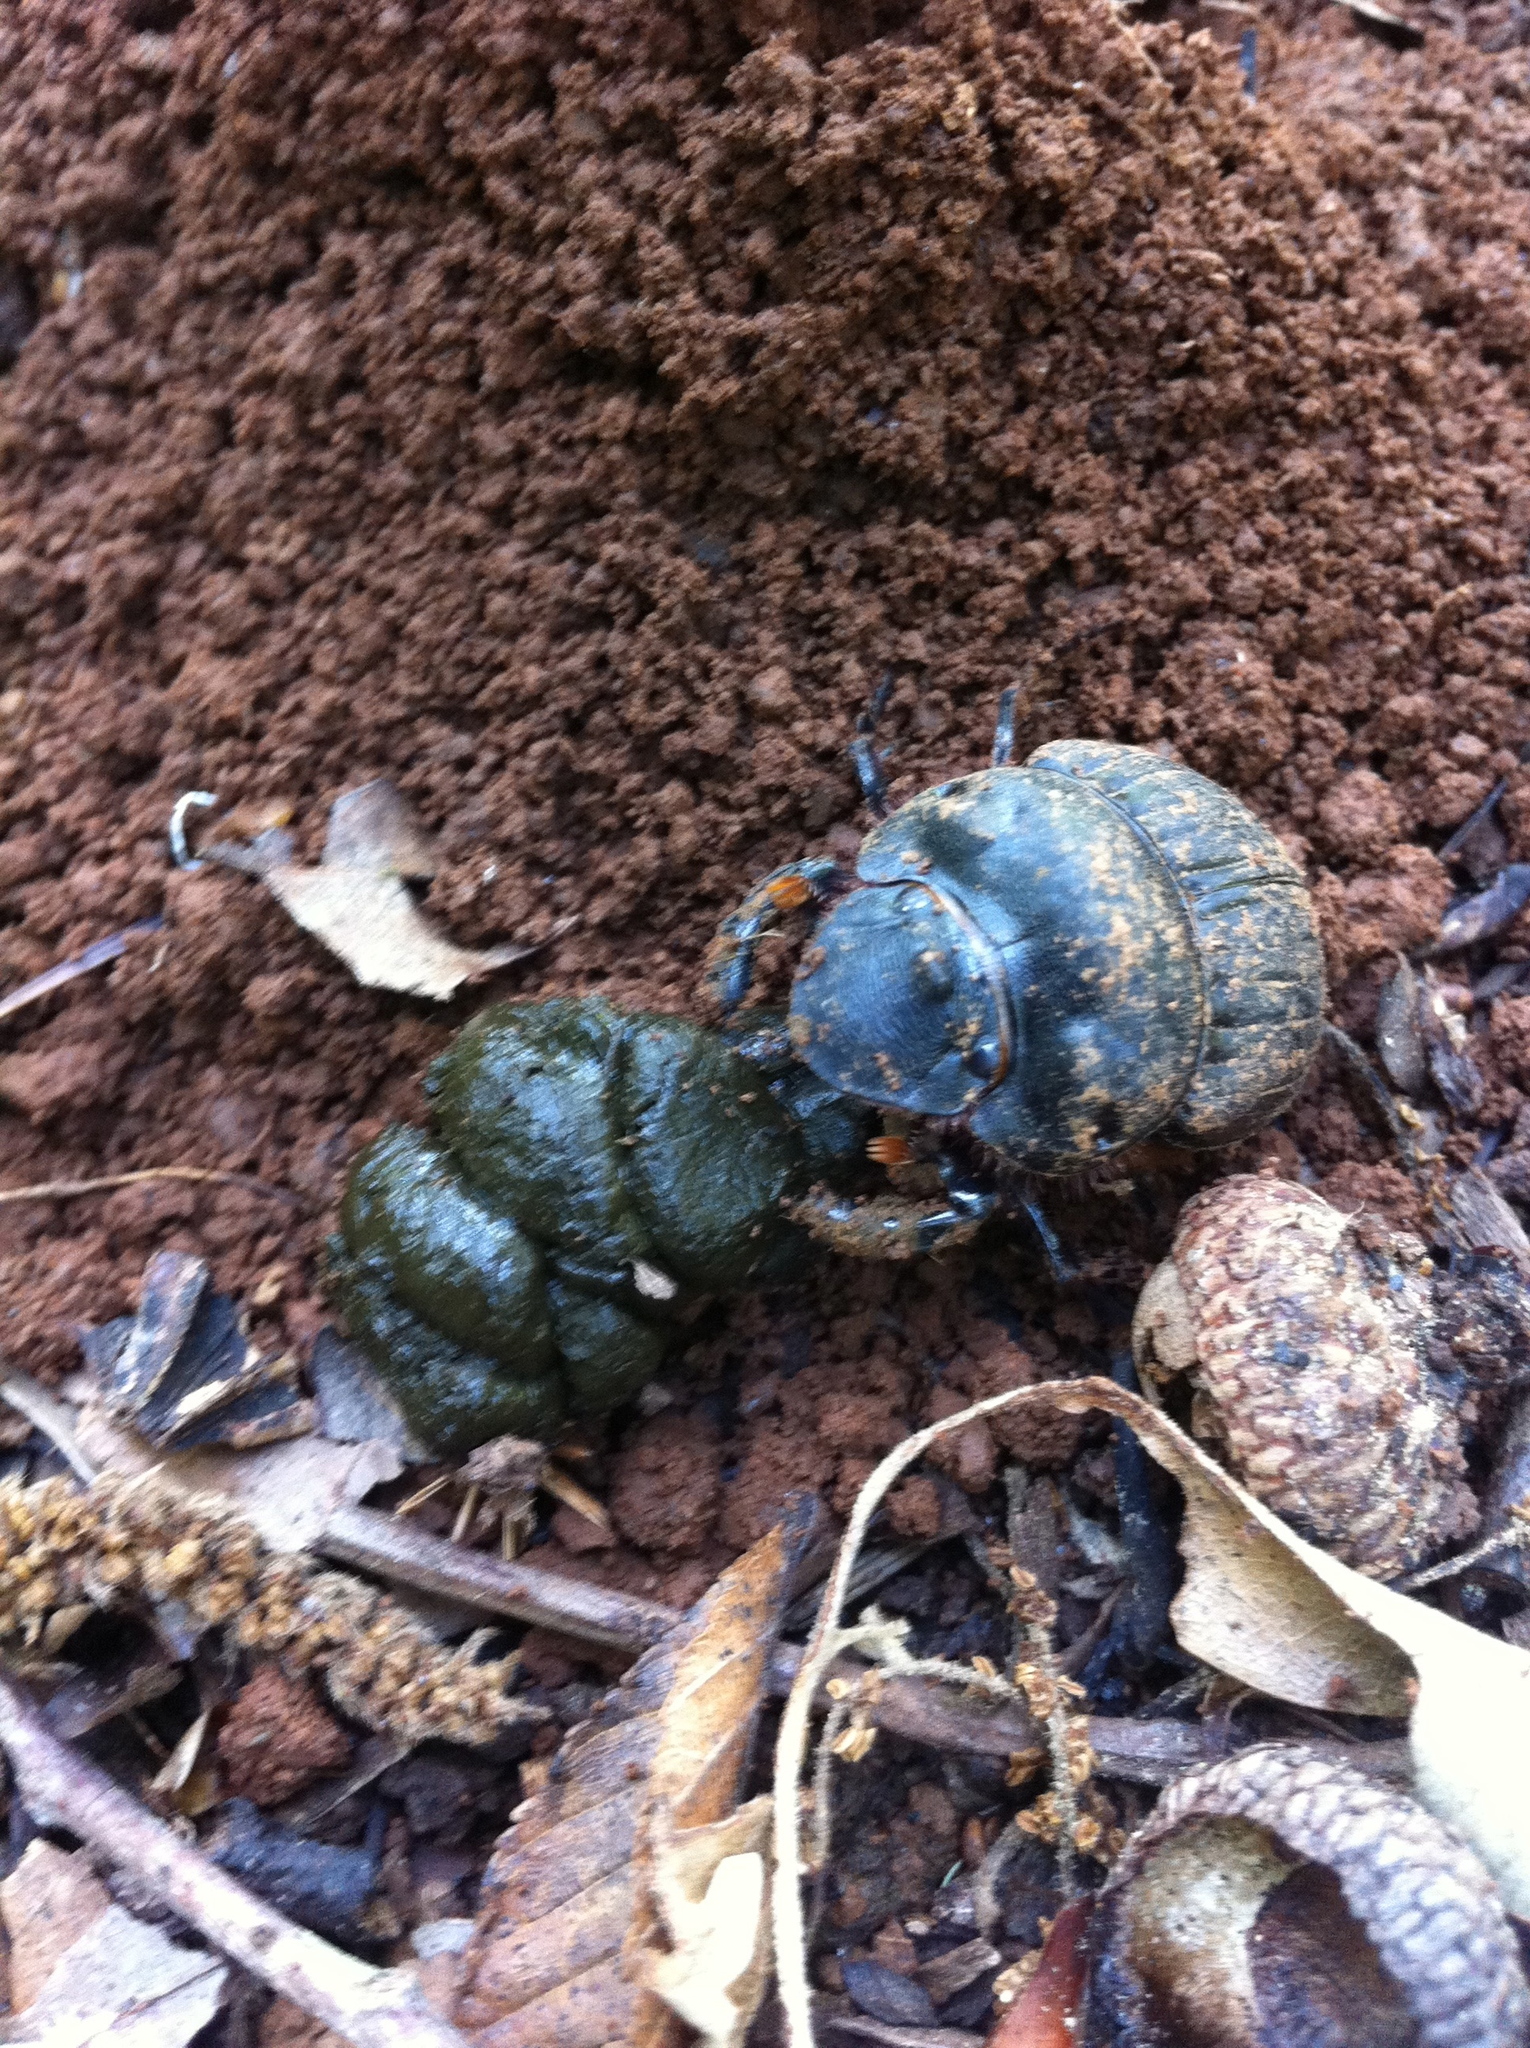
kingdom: Animalia
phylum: Arthropoda
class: Insecta
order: Coleoptera
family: Scarabaeidae
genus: Dichotomius
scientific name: Dichotomius carolinus
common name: Carolina copris
